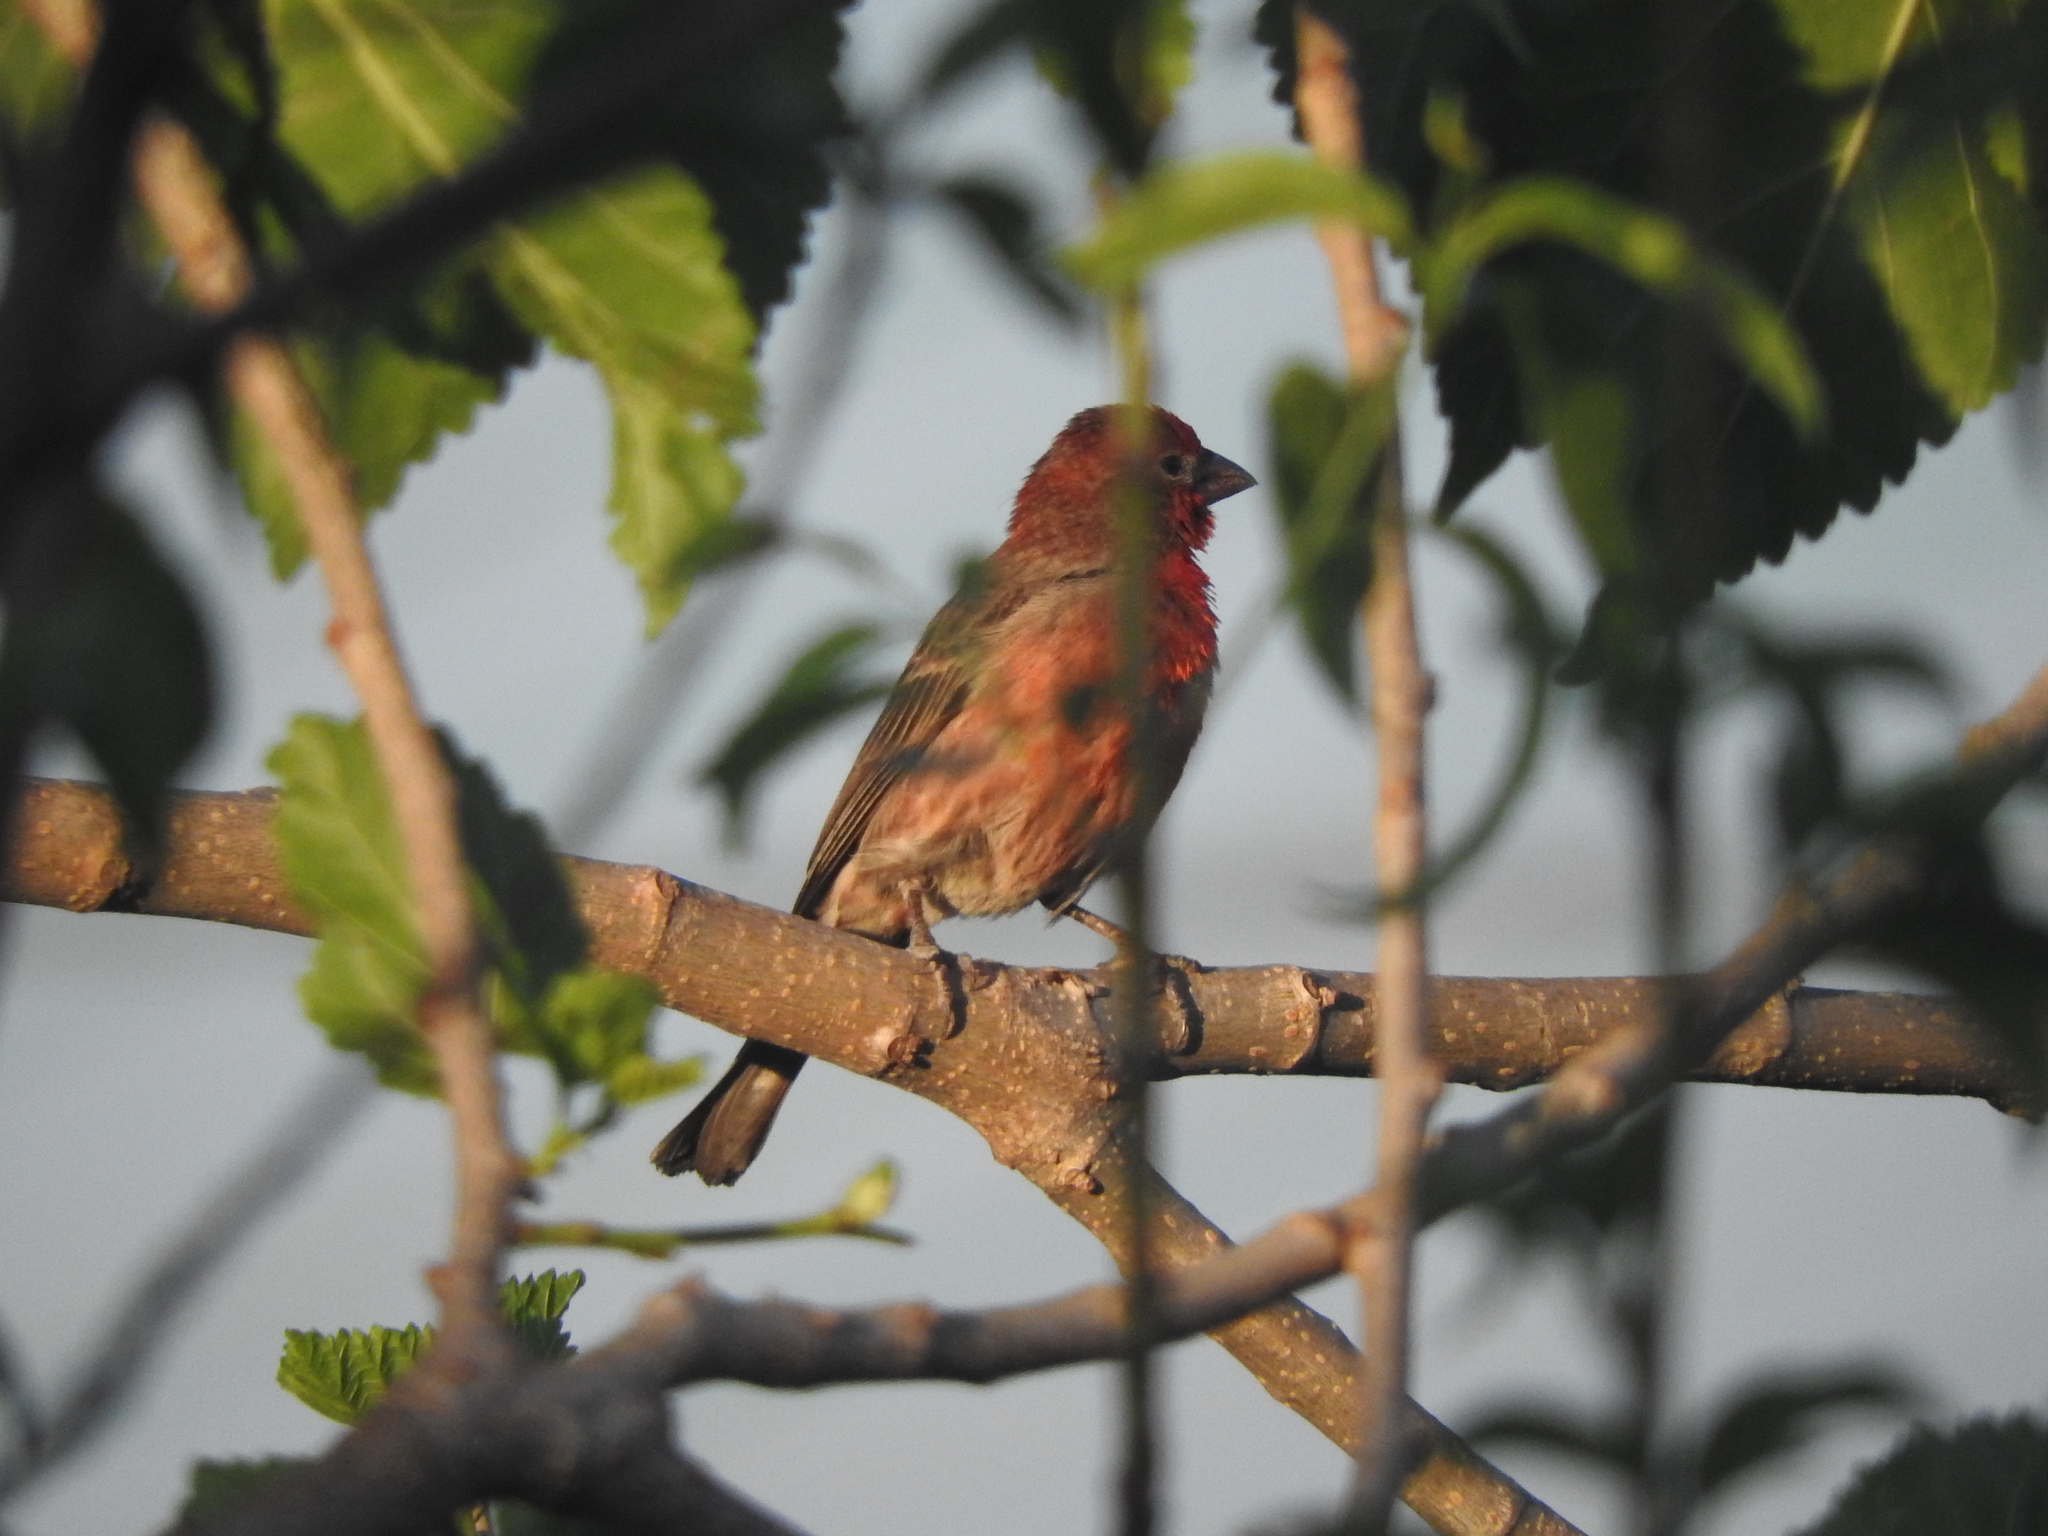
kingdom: Animalia
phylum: Chordata
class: Aves
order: Passeriformes
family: Fringillidae
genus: Haemorhous
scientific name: Haemorhous mexicanus
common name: House finch
